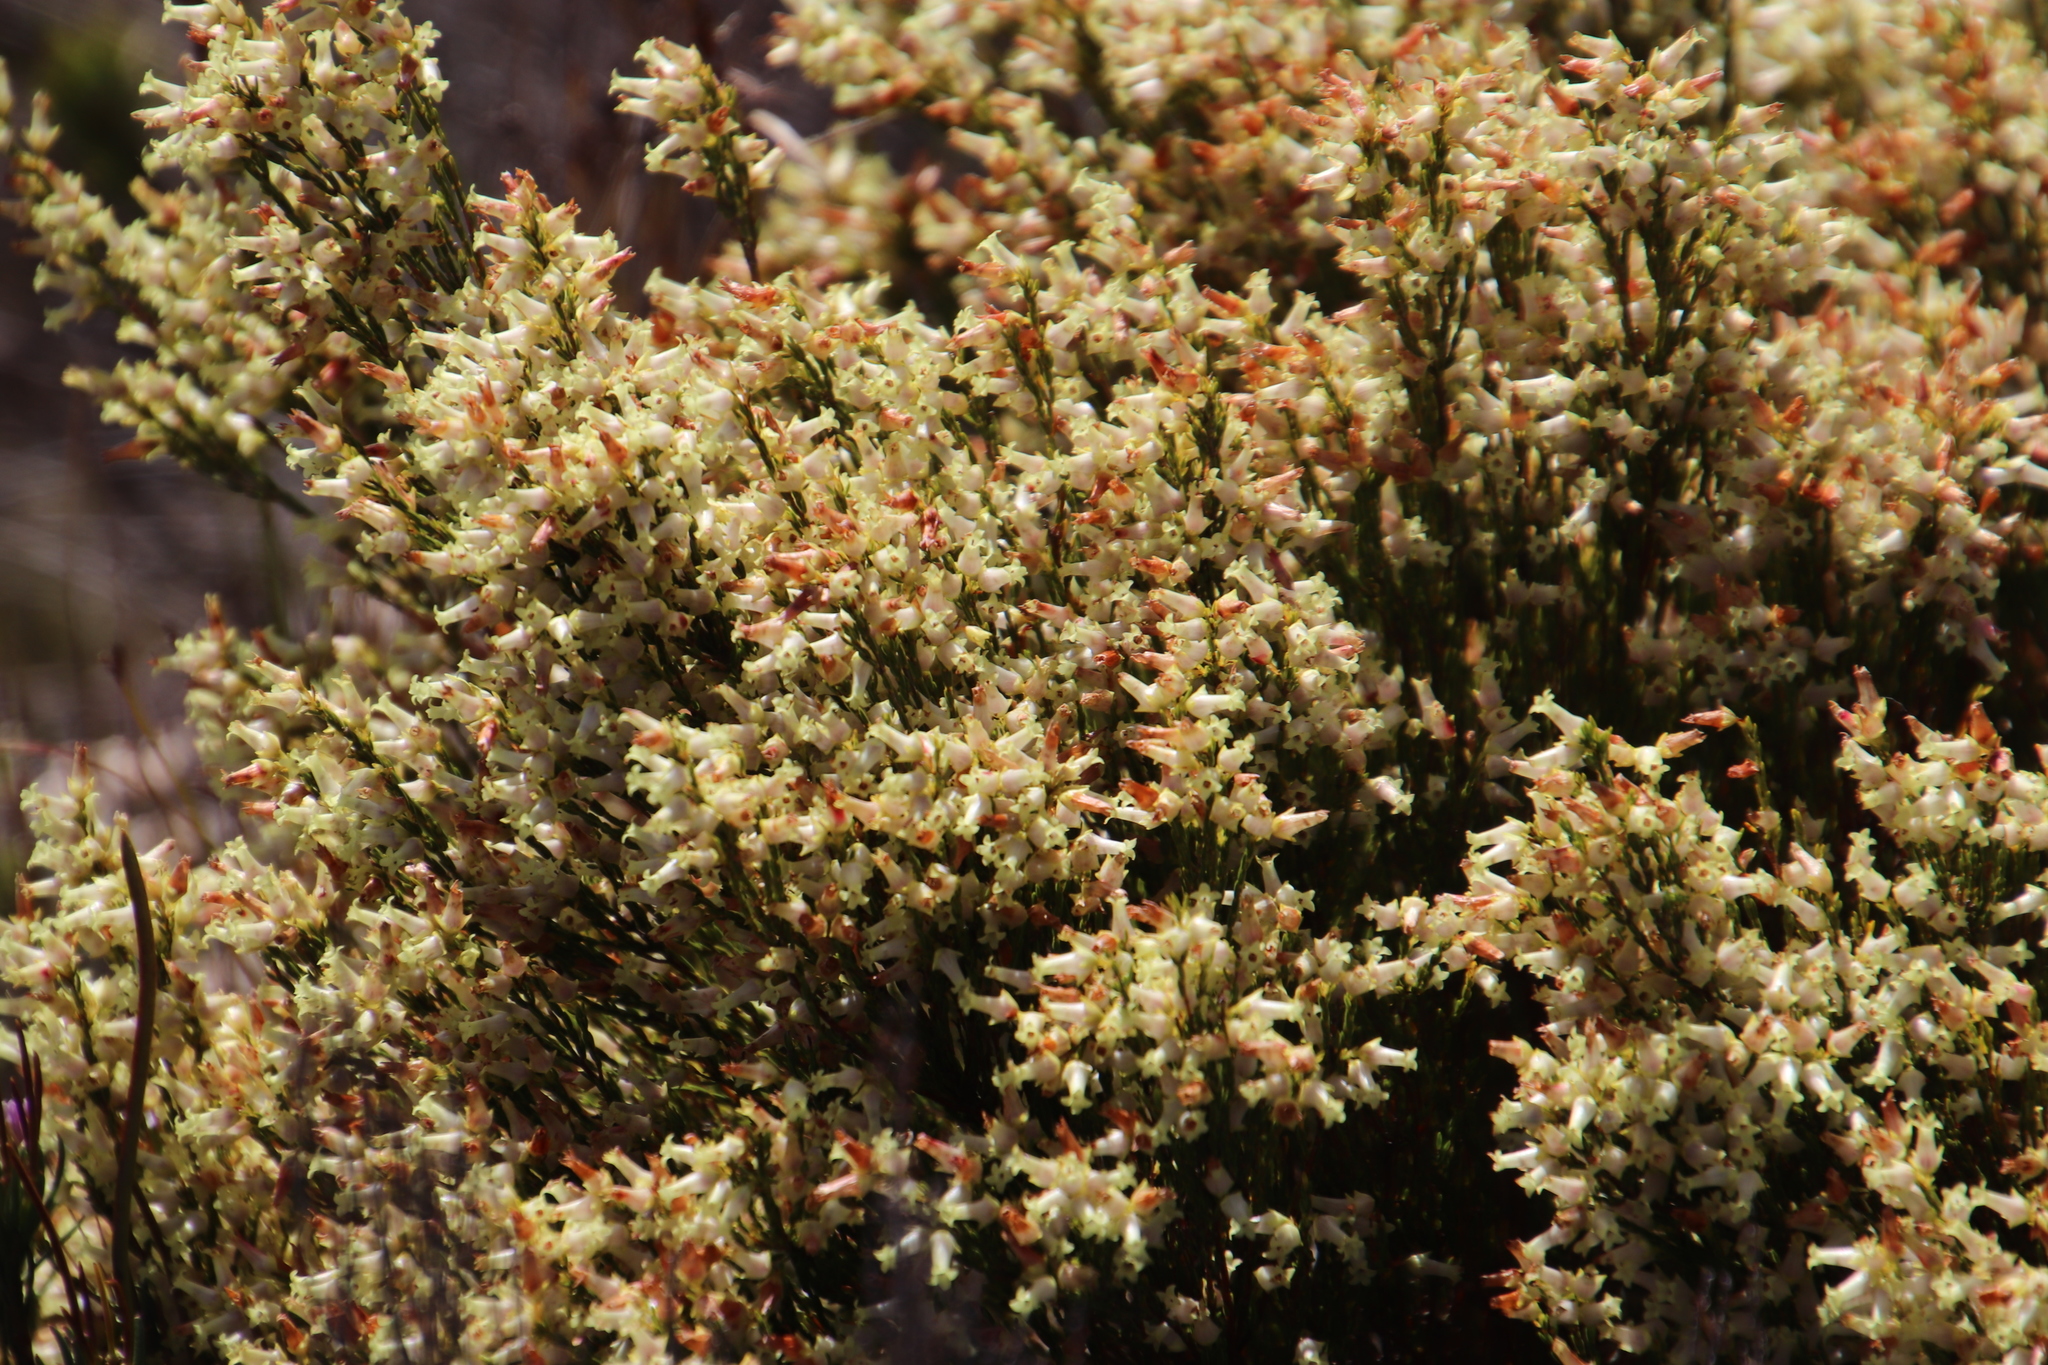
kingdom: Plantae
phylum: Tracheophyta
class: Magnoliopsida
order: Ericales
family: Ericaceae
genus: Erica
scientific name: Erica lutea
